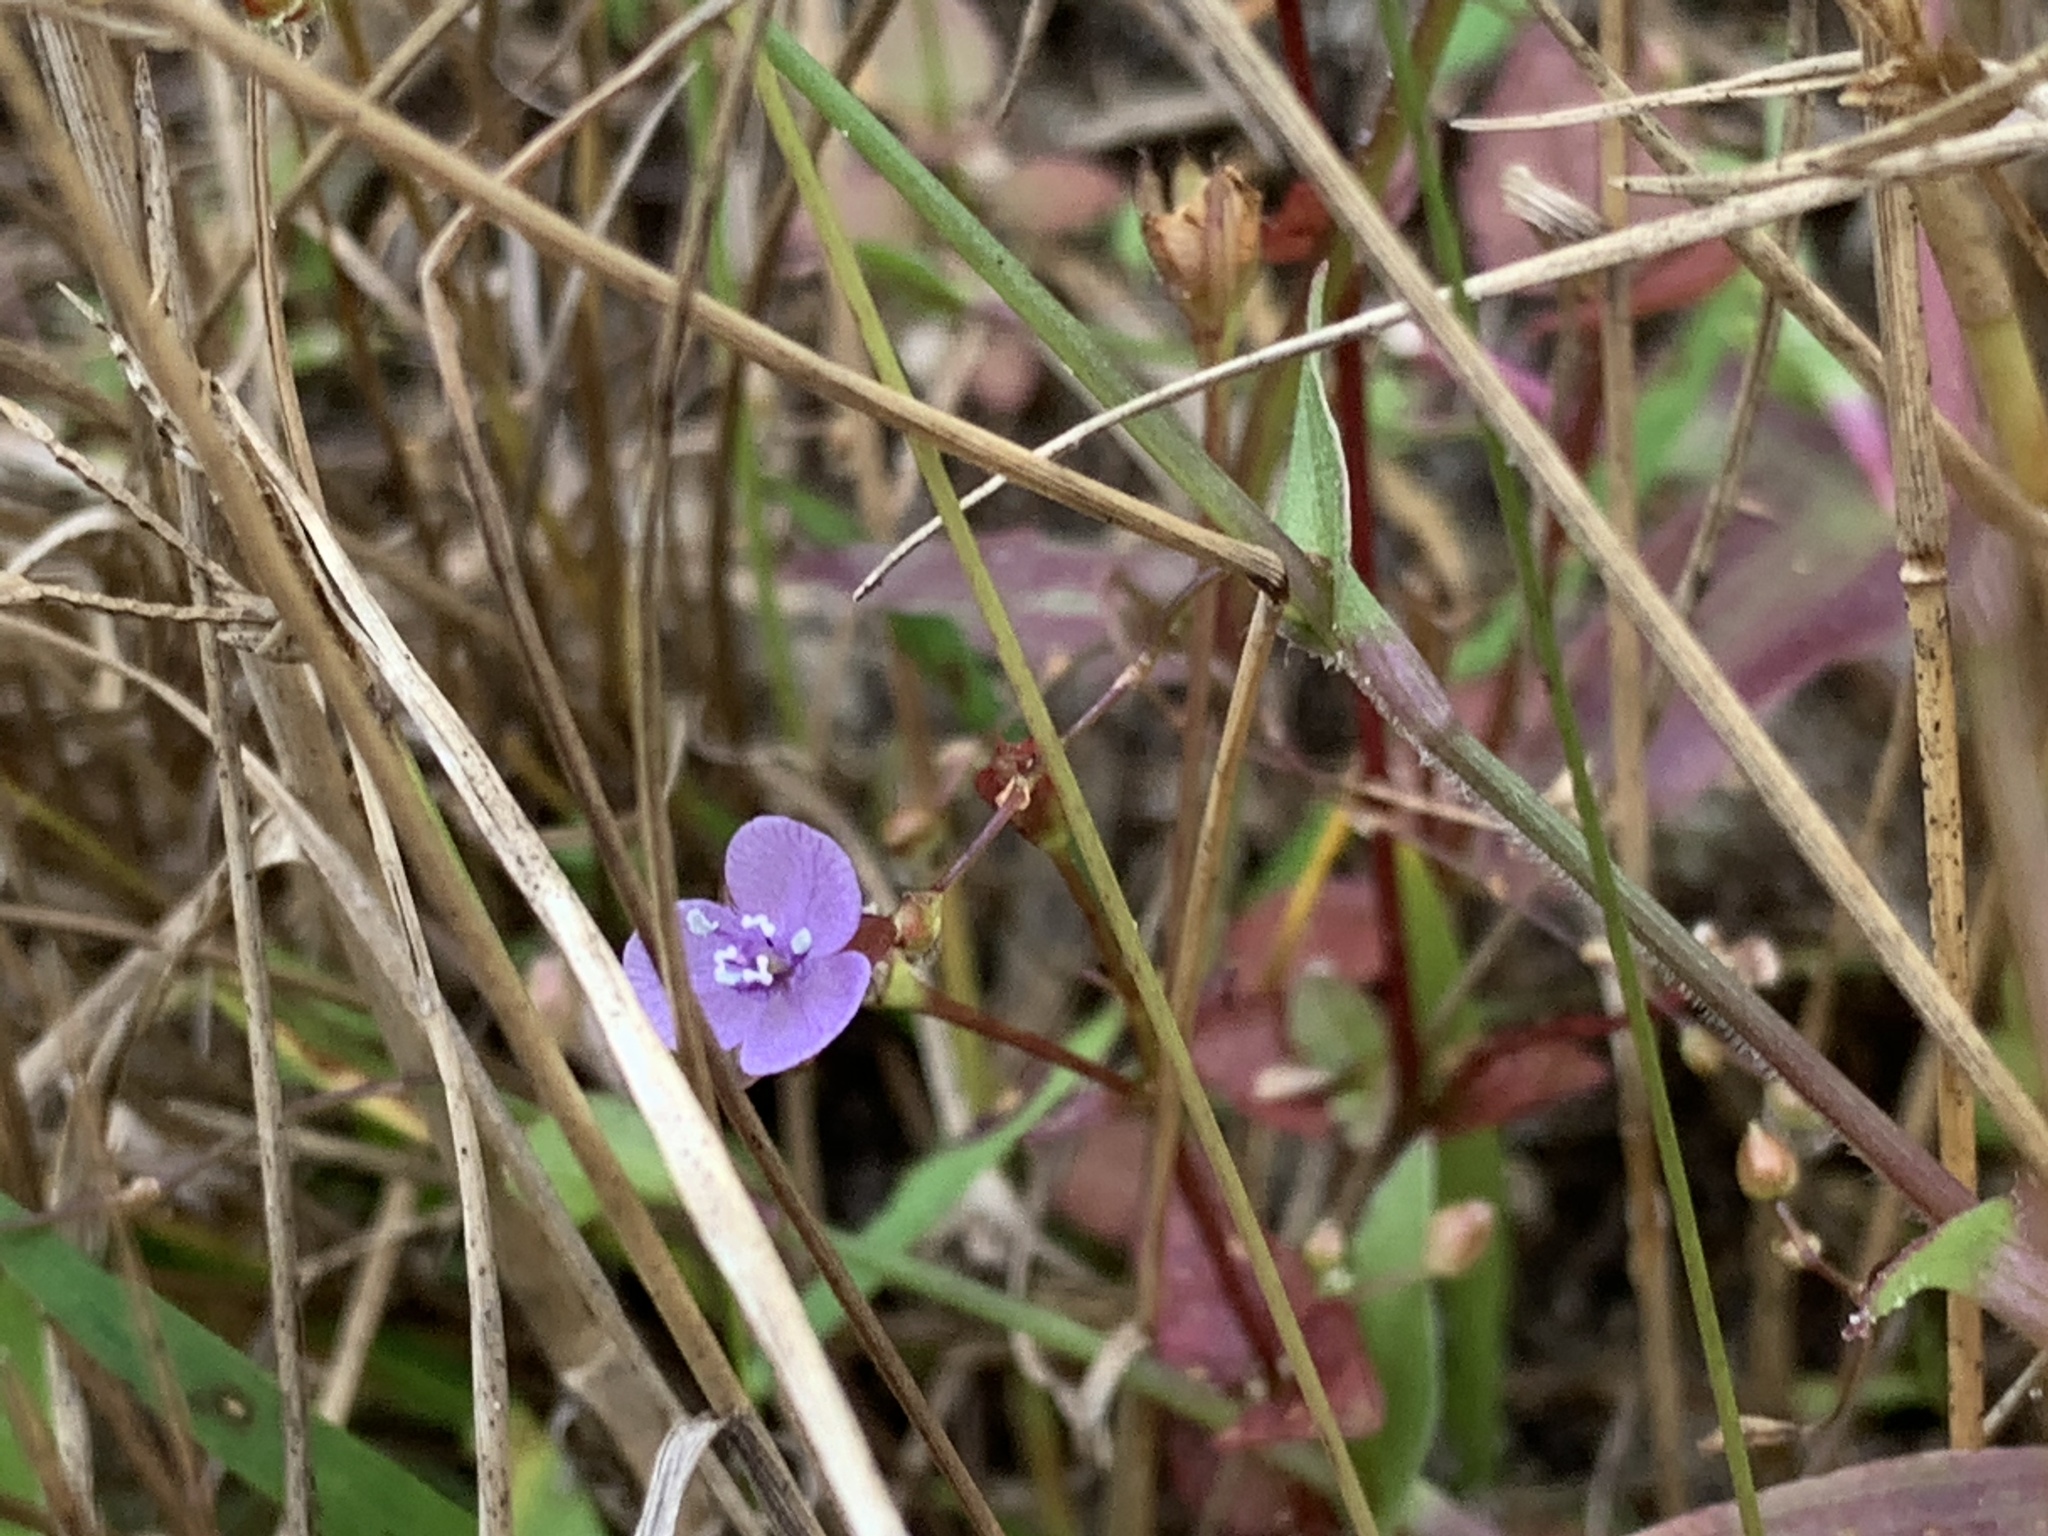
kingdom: Plantae
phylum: Tracheophyta
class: Liliopsida
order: Commelinales
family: Commelinaceae
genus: Murdannia
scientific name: Murdannia nudiflora
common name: Nakedstem dewflower
